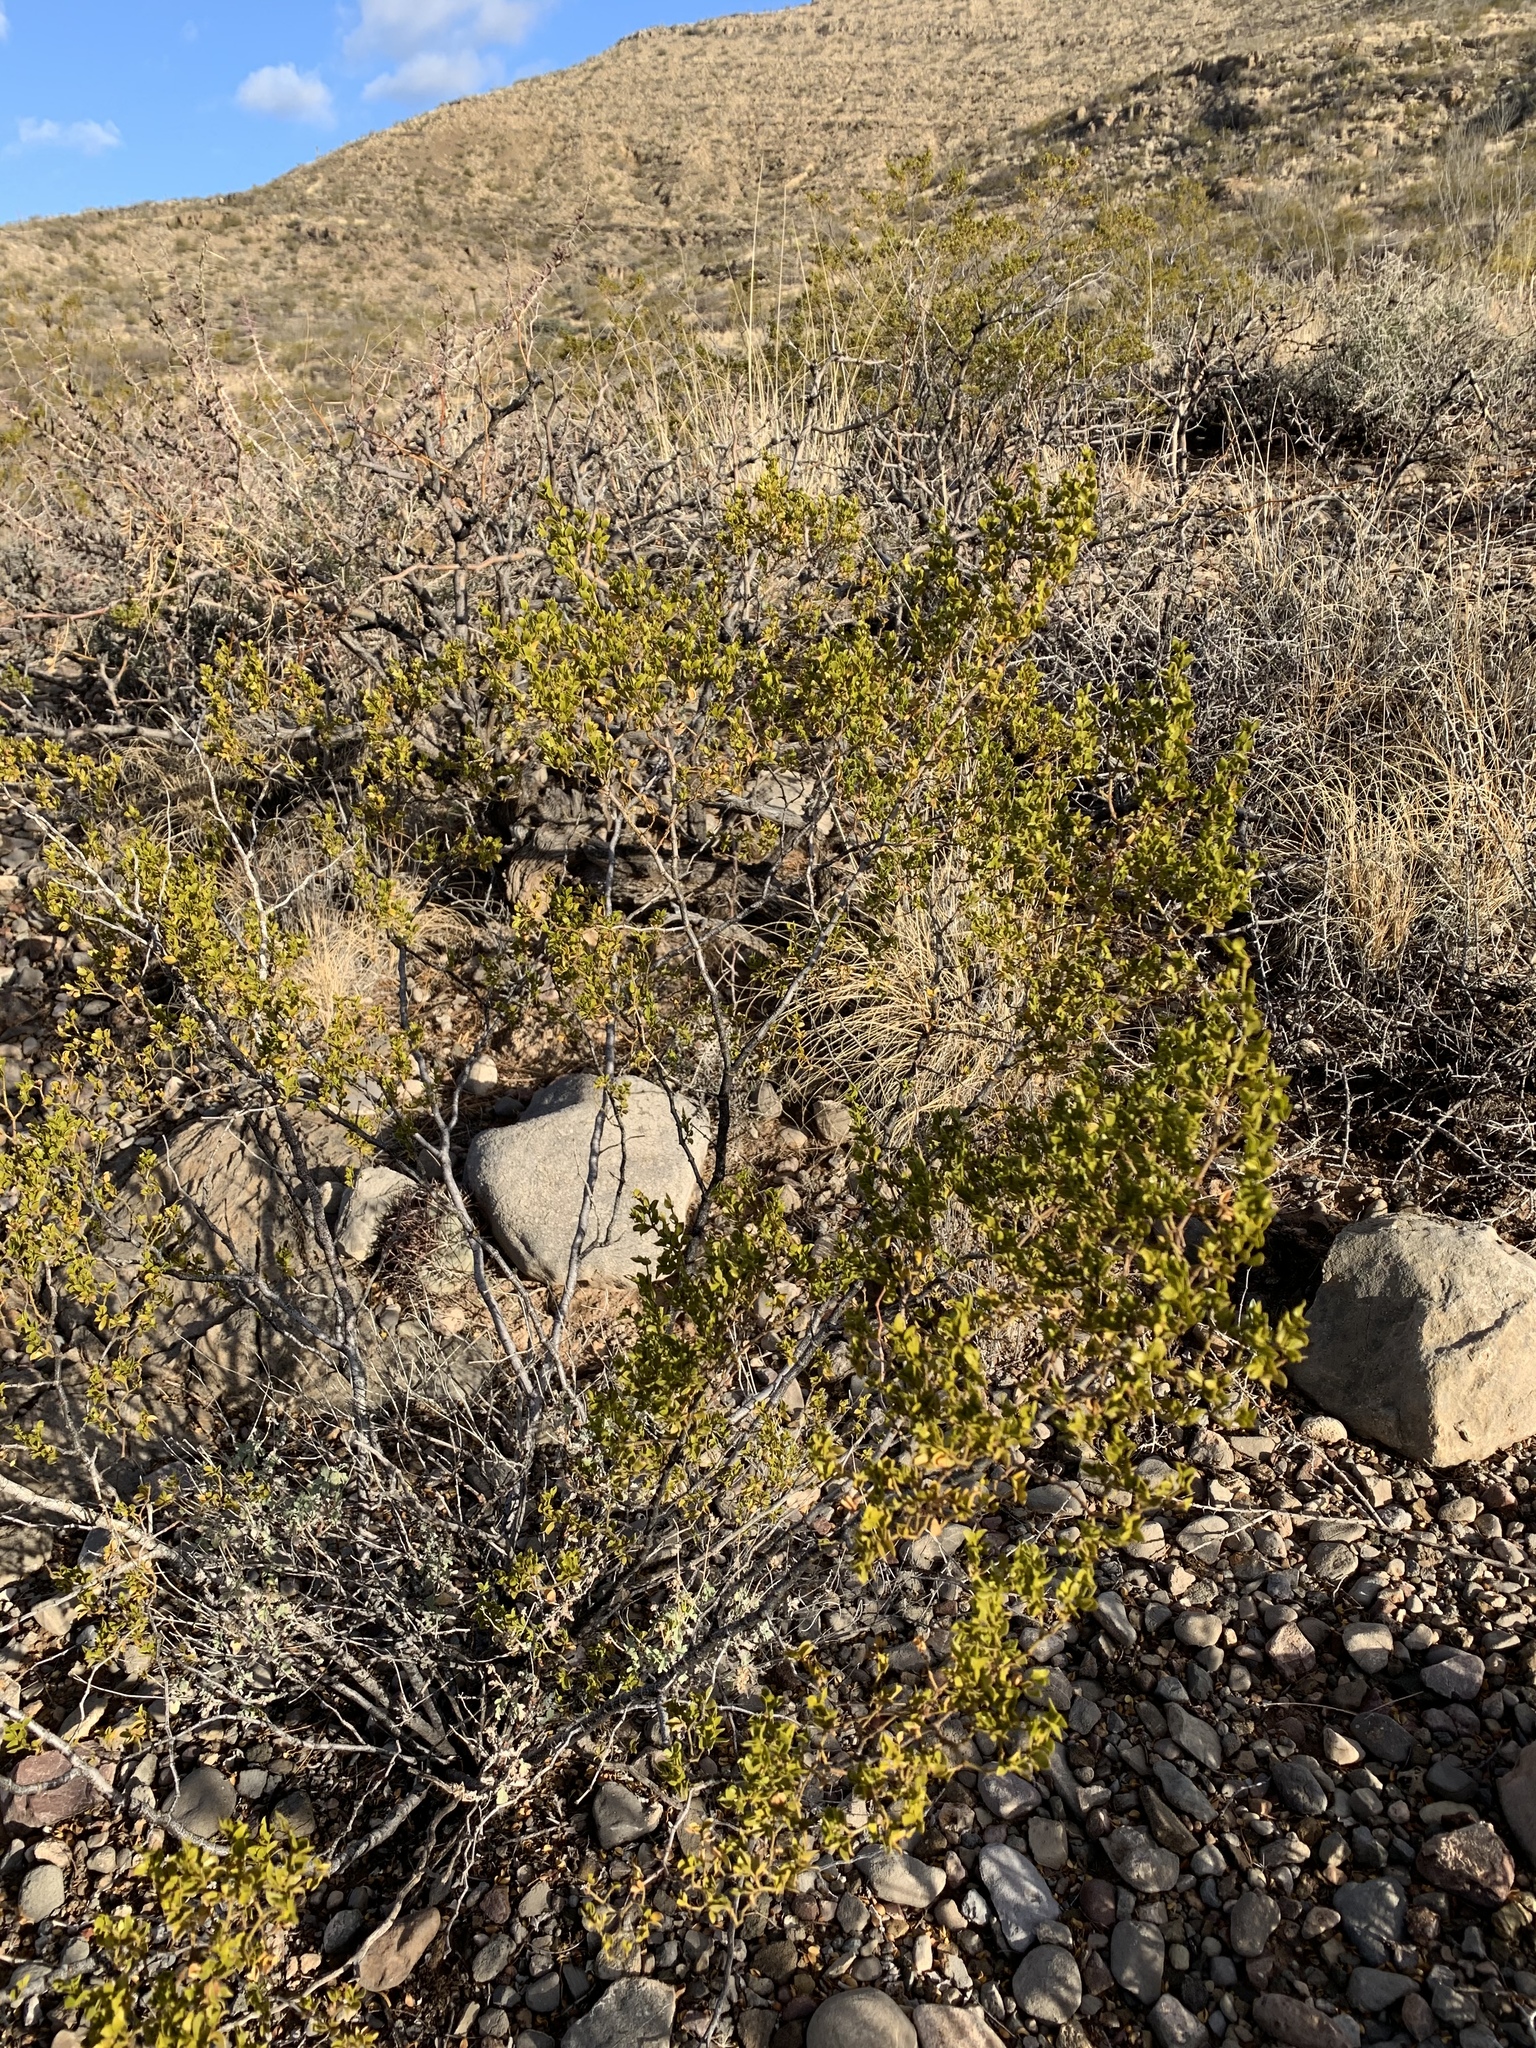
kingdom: Plantae
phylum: Tracheophyta
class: Magnoliopsida
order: Zygophyllales
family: Zygophyllaceae
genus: Larrea
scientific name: Larrea tridentata
